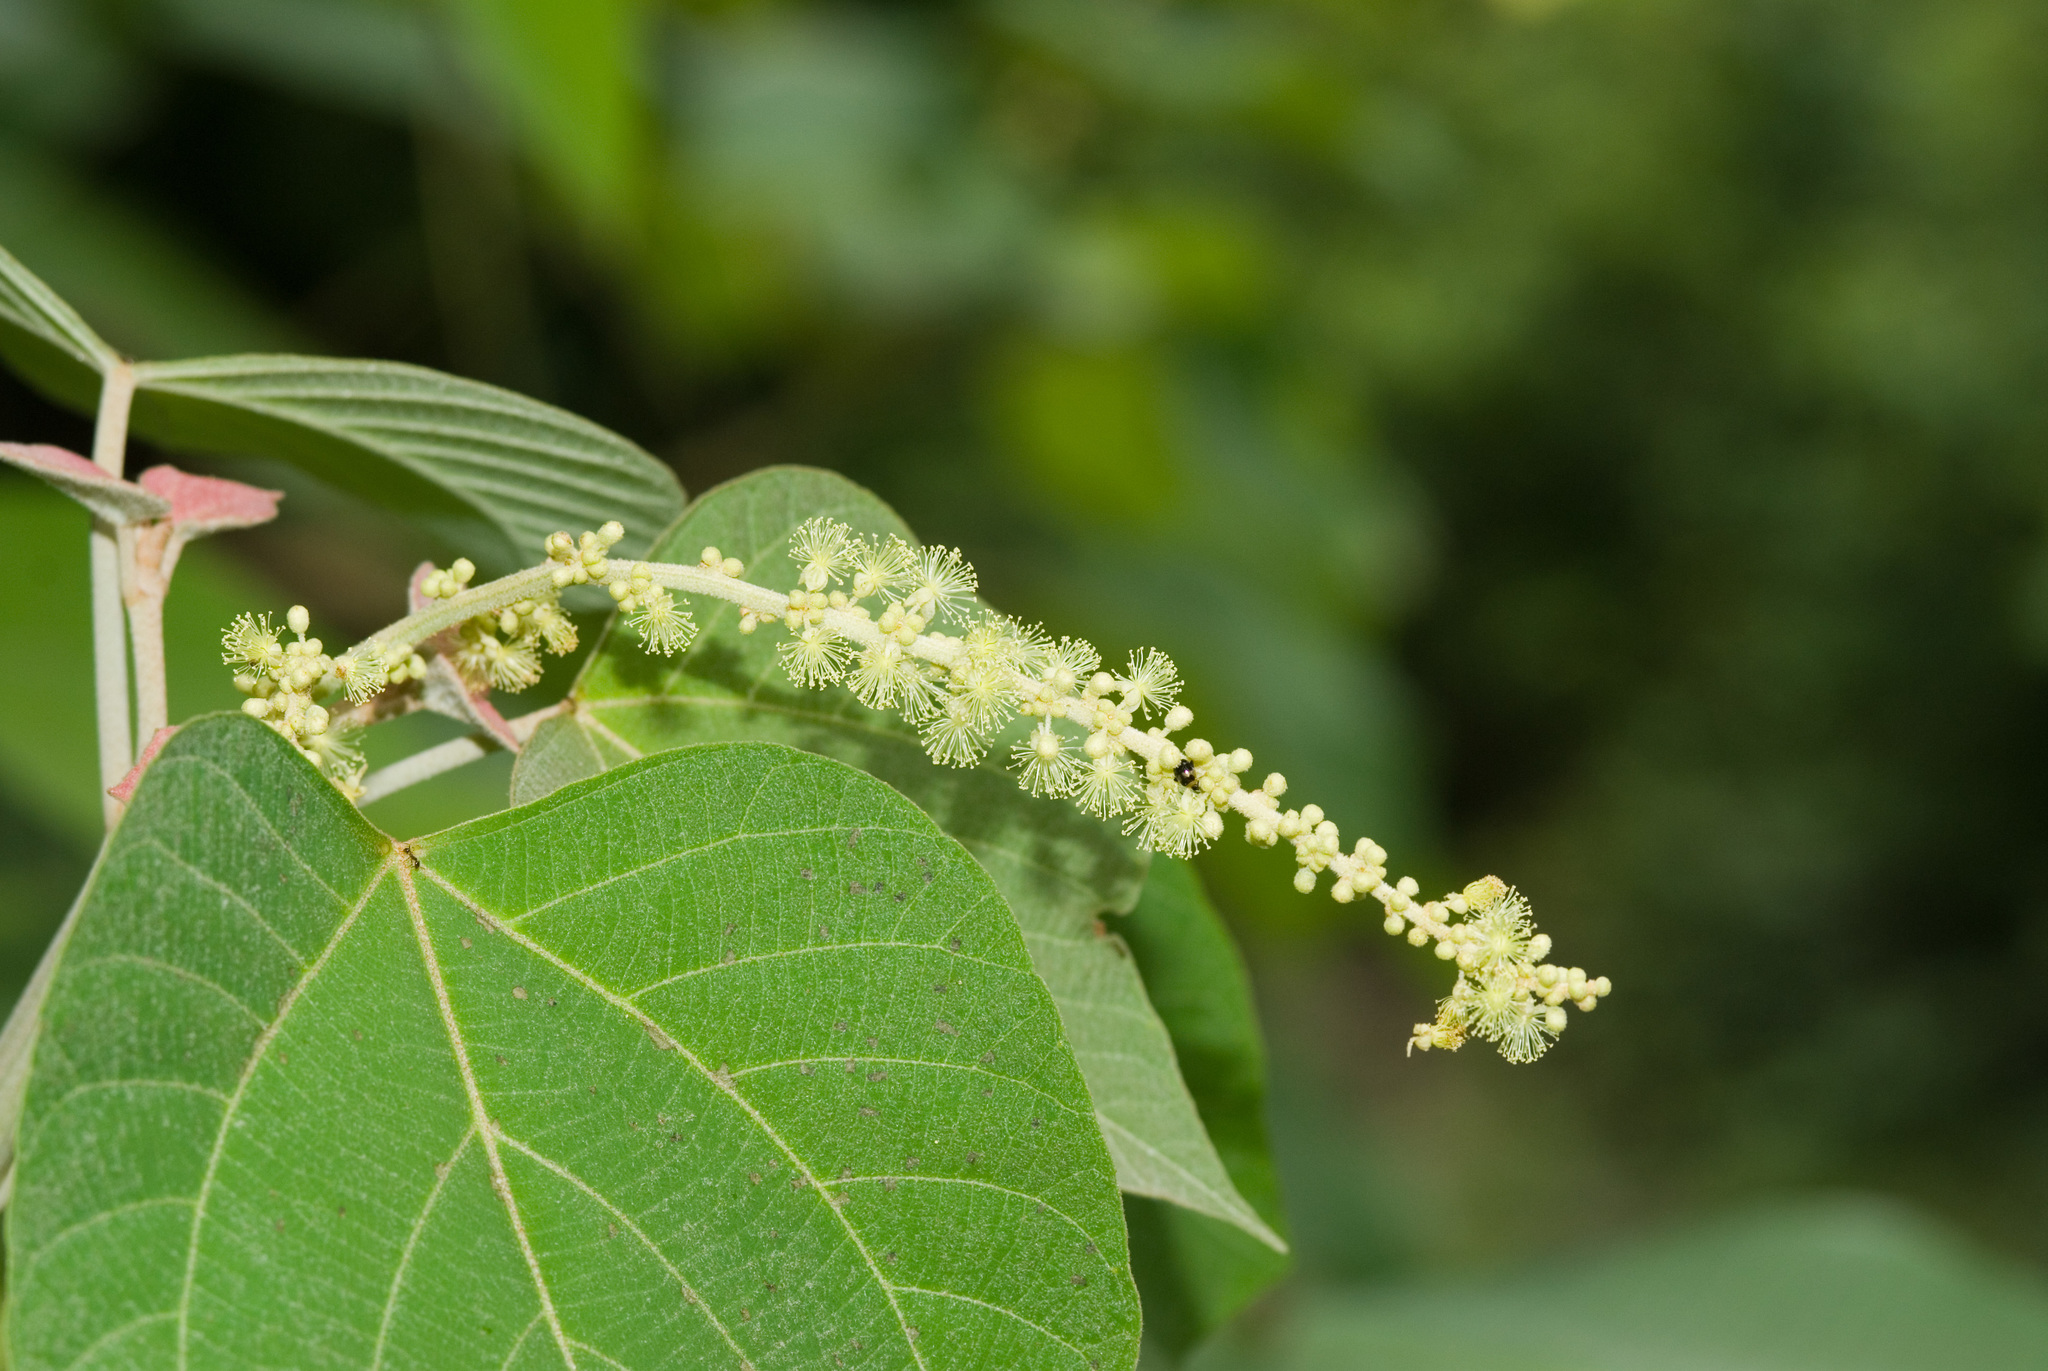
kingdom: Plantae
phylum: Tracheophyta
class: Magnoliopsida
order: Malpighiales
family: Euphorbiaceae
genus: Mallotus
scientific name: Mallotus japonicus
